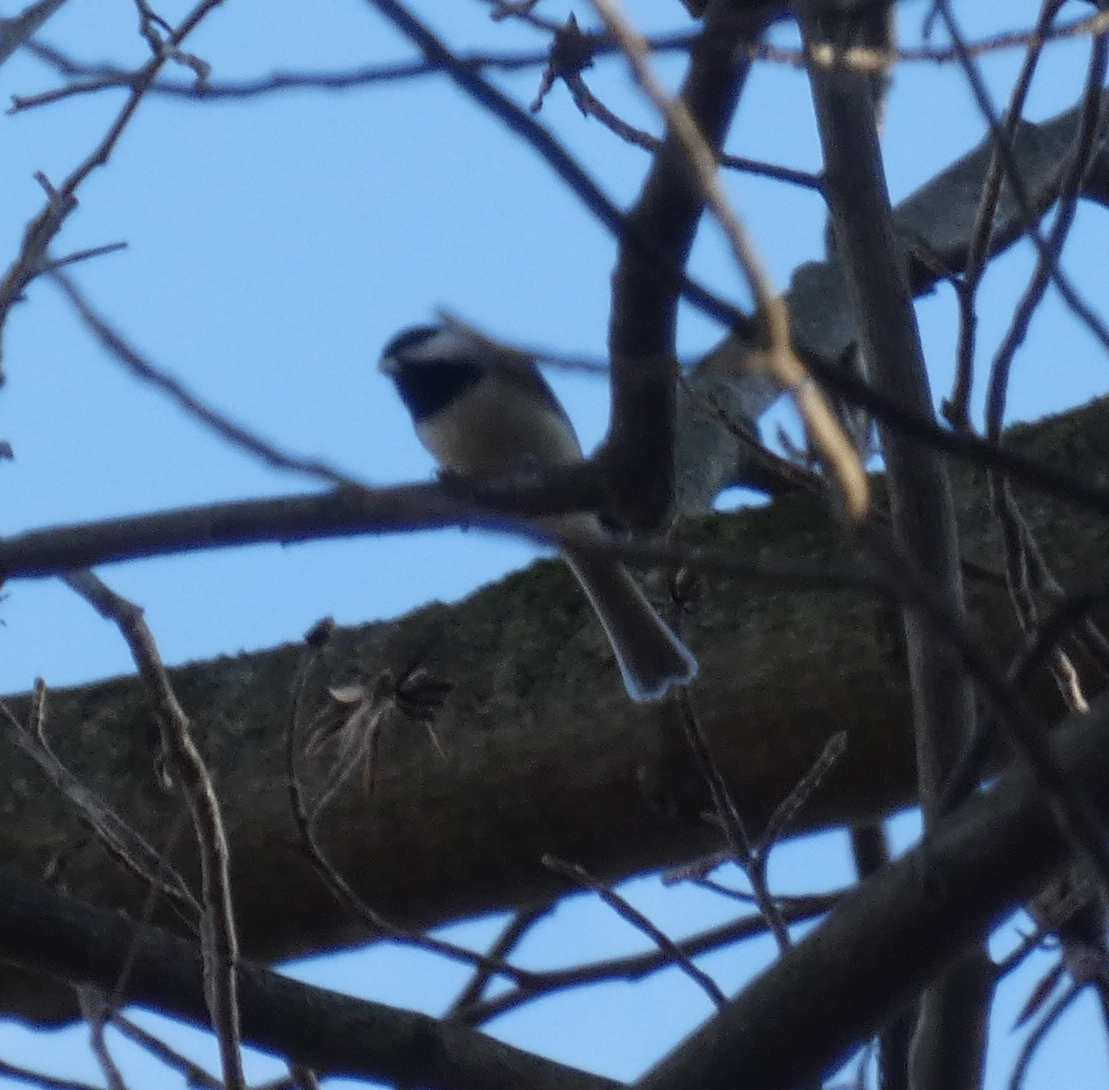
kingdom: Animalia
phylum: Chordata
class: Aves
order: Passeriformes
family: Paridae
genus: Poecile
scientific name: Poecile carolinensis
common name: Carolina chickadee
